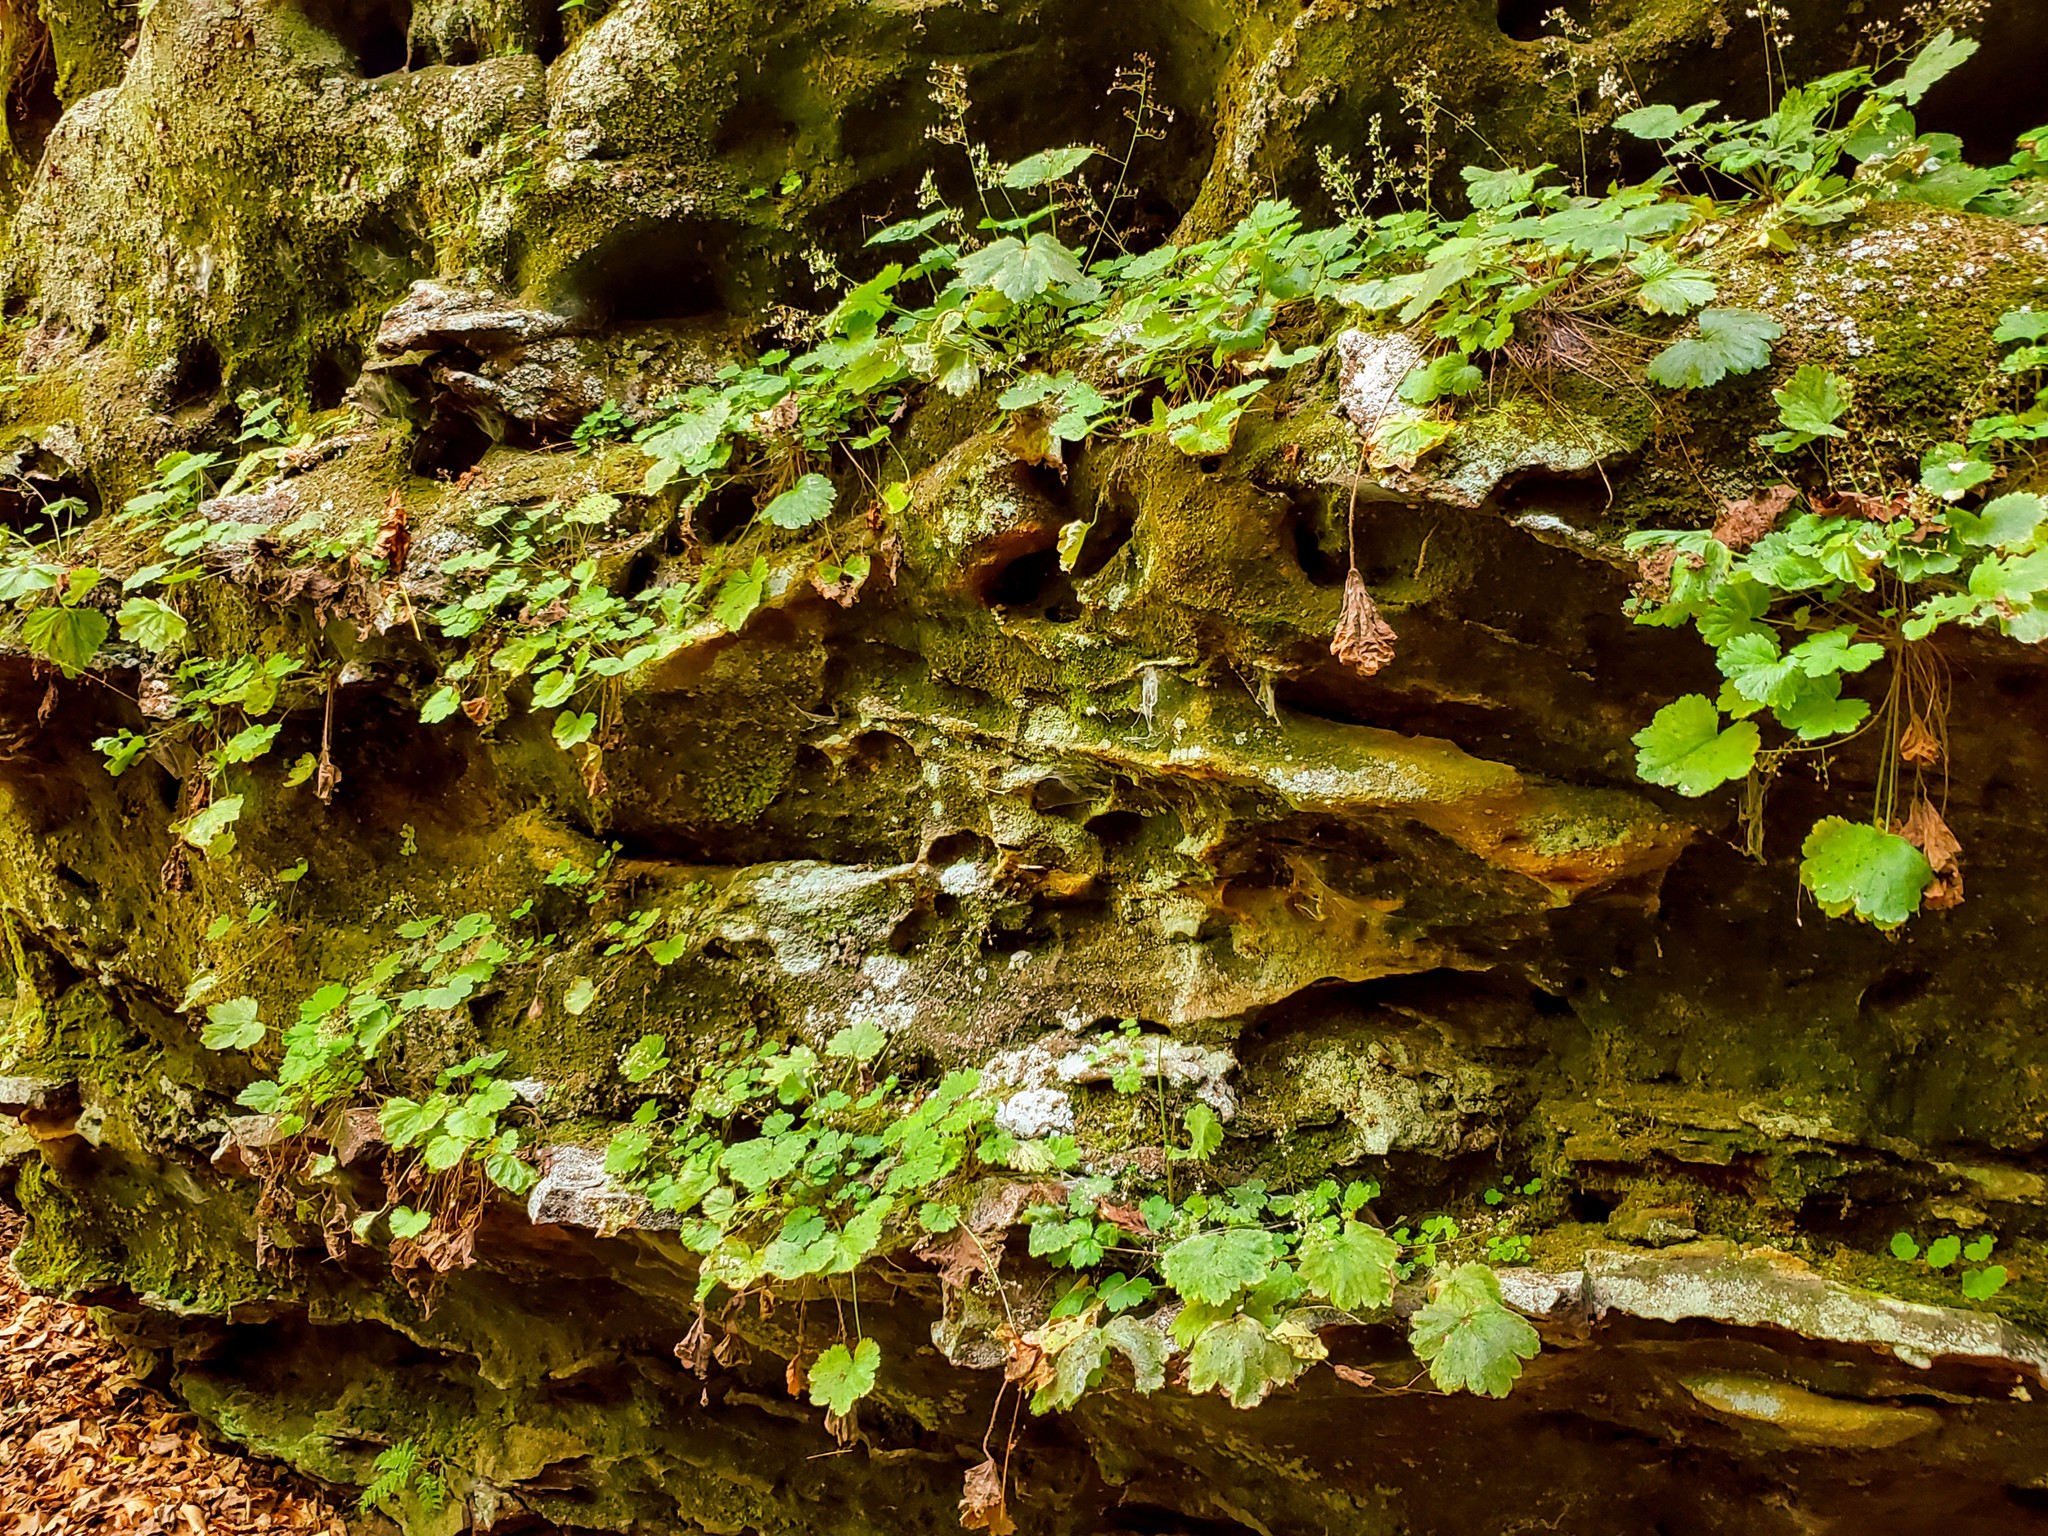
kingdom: Plantae
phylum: Tracheophyta
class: Magnoliopsida
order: Saxifragales
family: Saxifragaceae
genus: Heuchera
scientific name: Heuchera missouriensis
